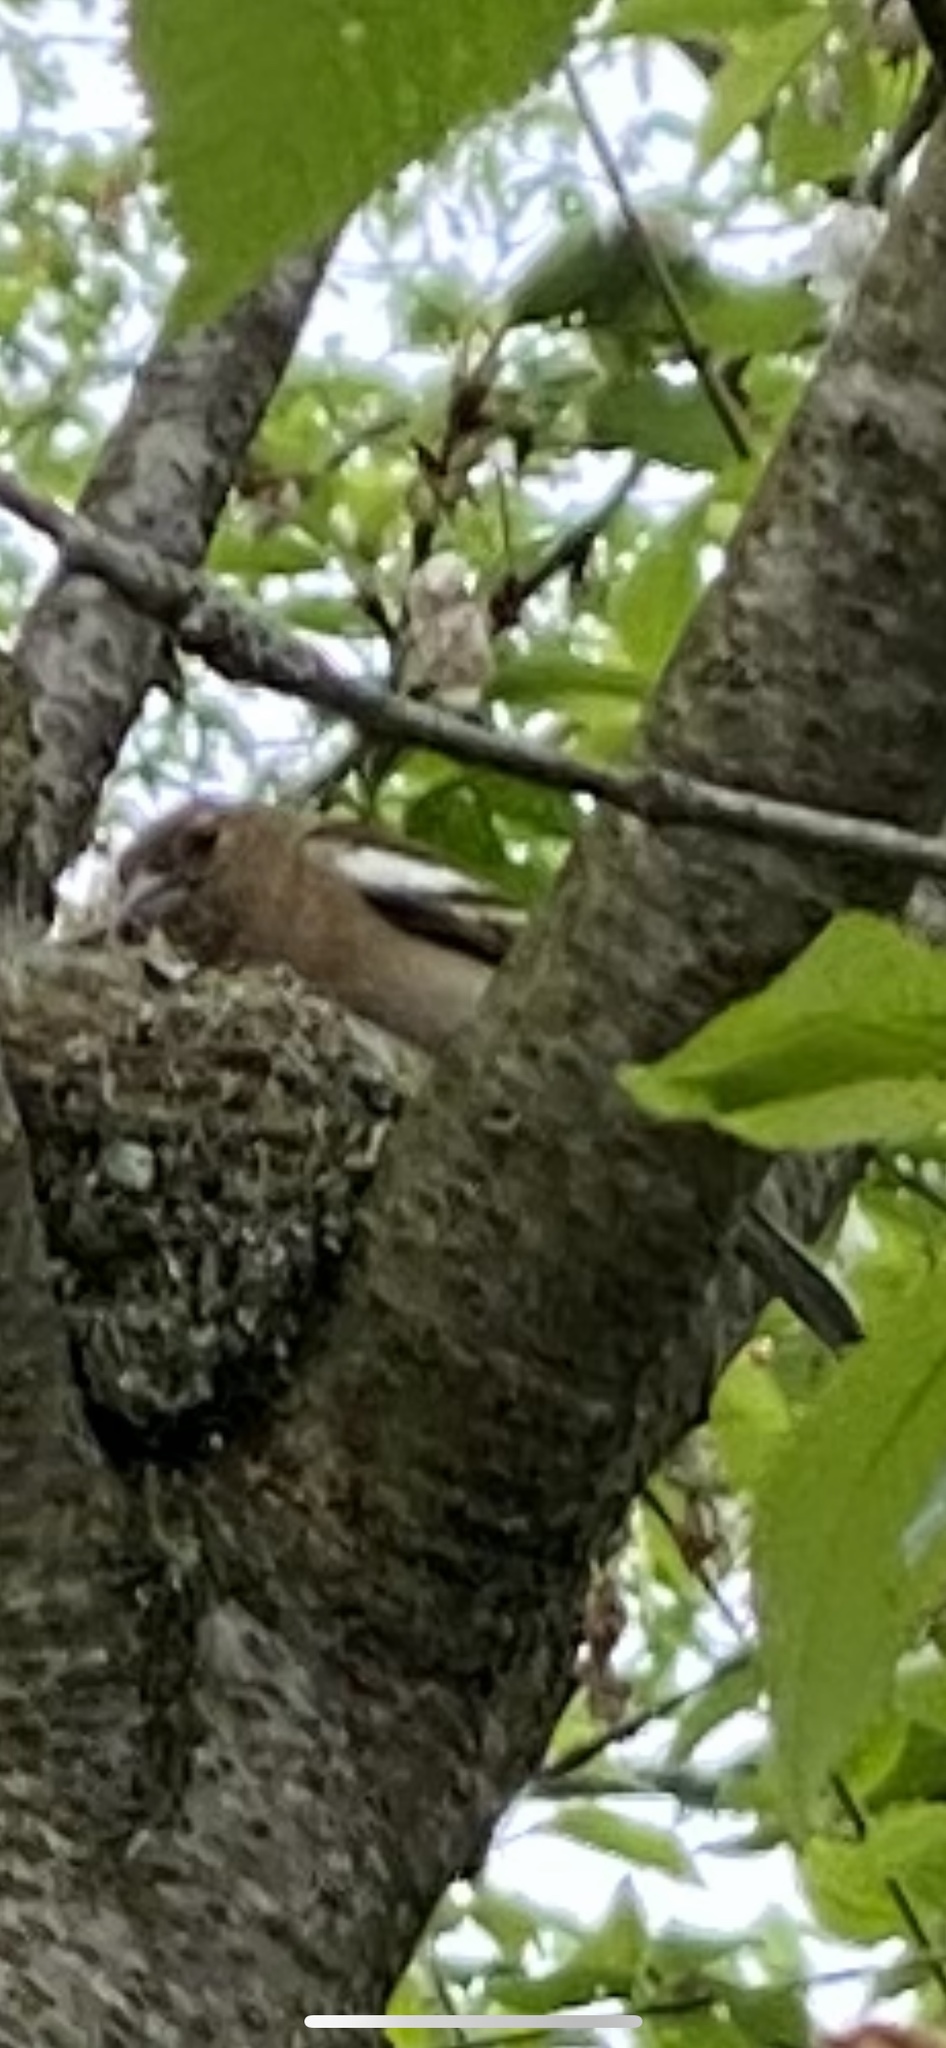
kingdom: Animalia
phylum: Chordata
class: Aves
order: Passeriformes
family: Fringillidae
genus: Fringilla
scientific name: Fringilla coelebs
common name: Common chaffinch
